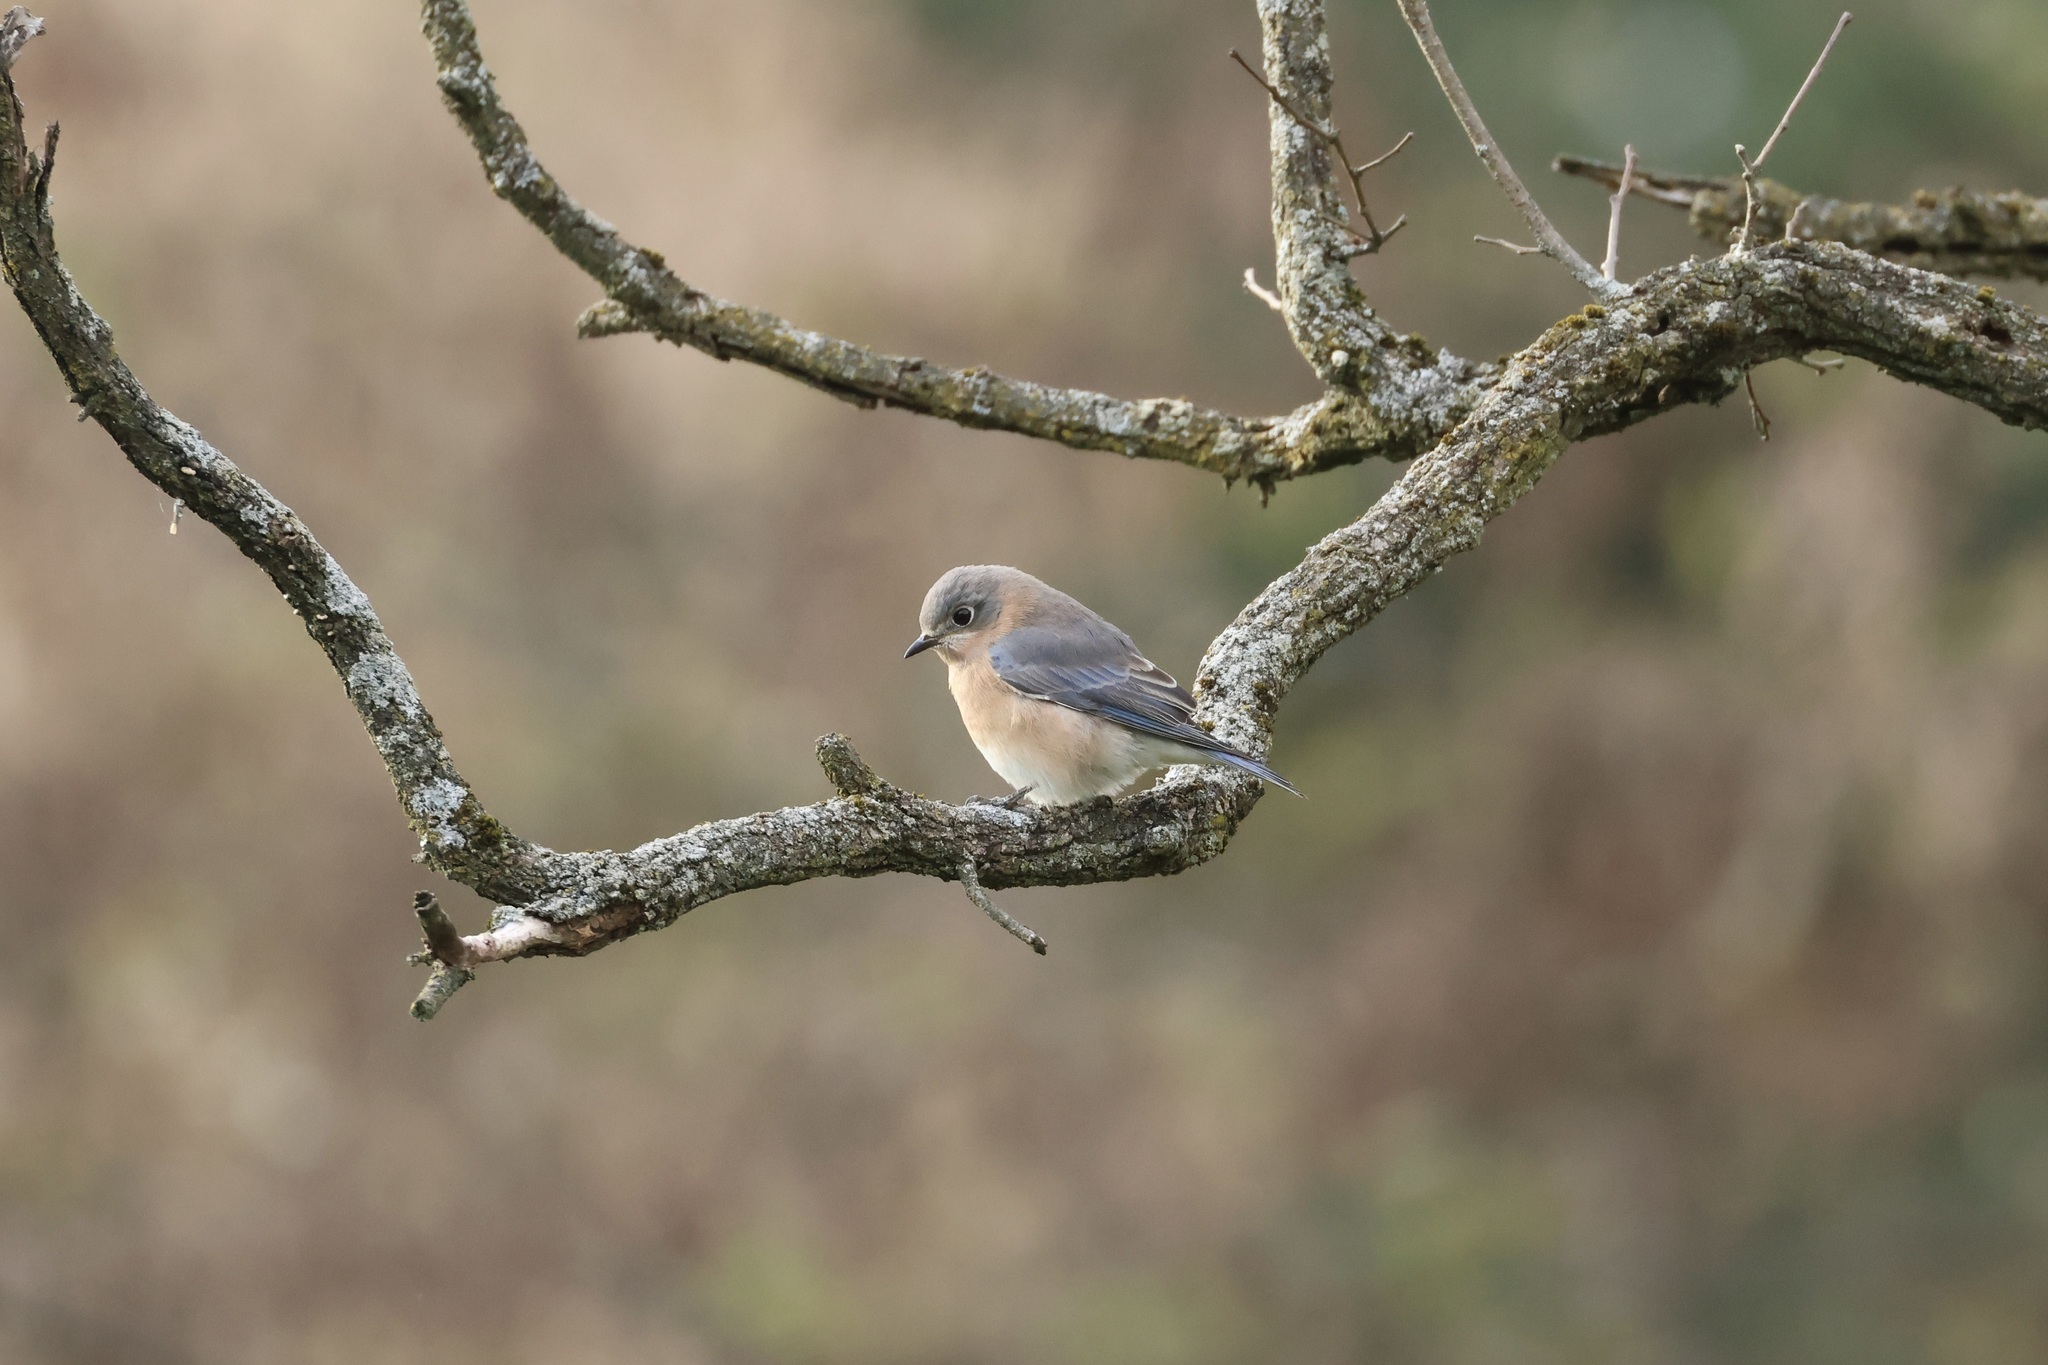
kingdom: Animalia
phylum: Chordata
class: Aves
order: Passeriformes
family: Turdidae
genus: Sialia
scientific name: Sialia sialis
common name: Eastern bluebird
